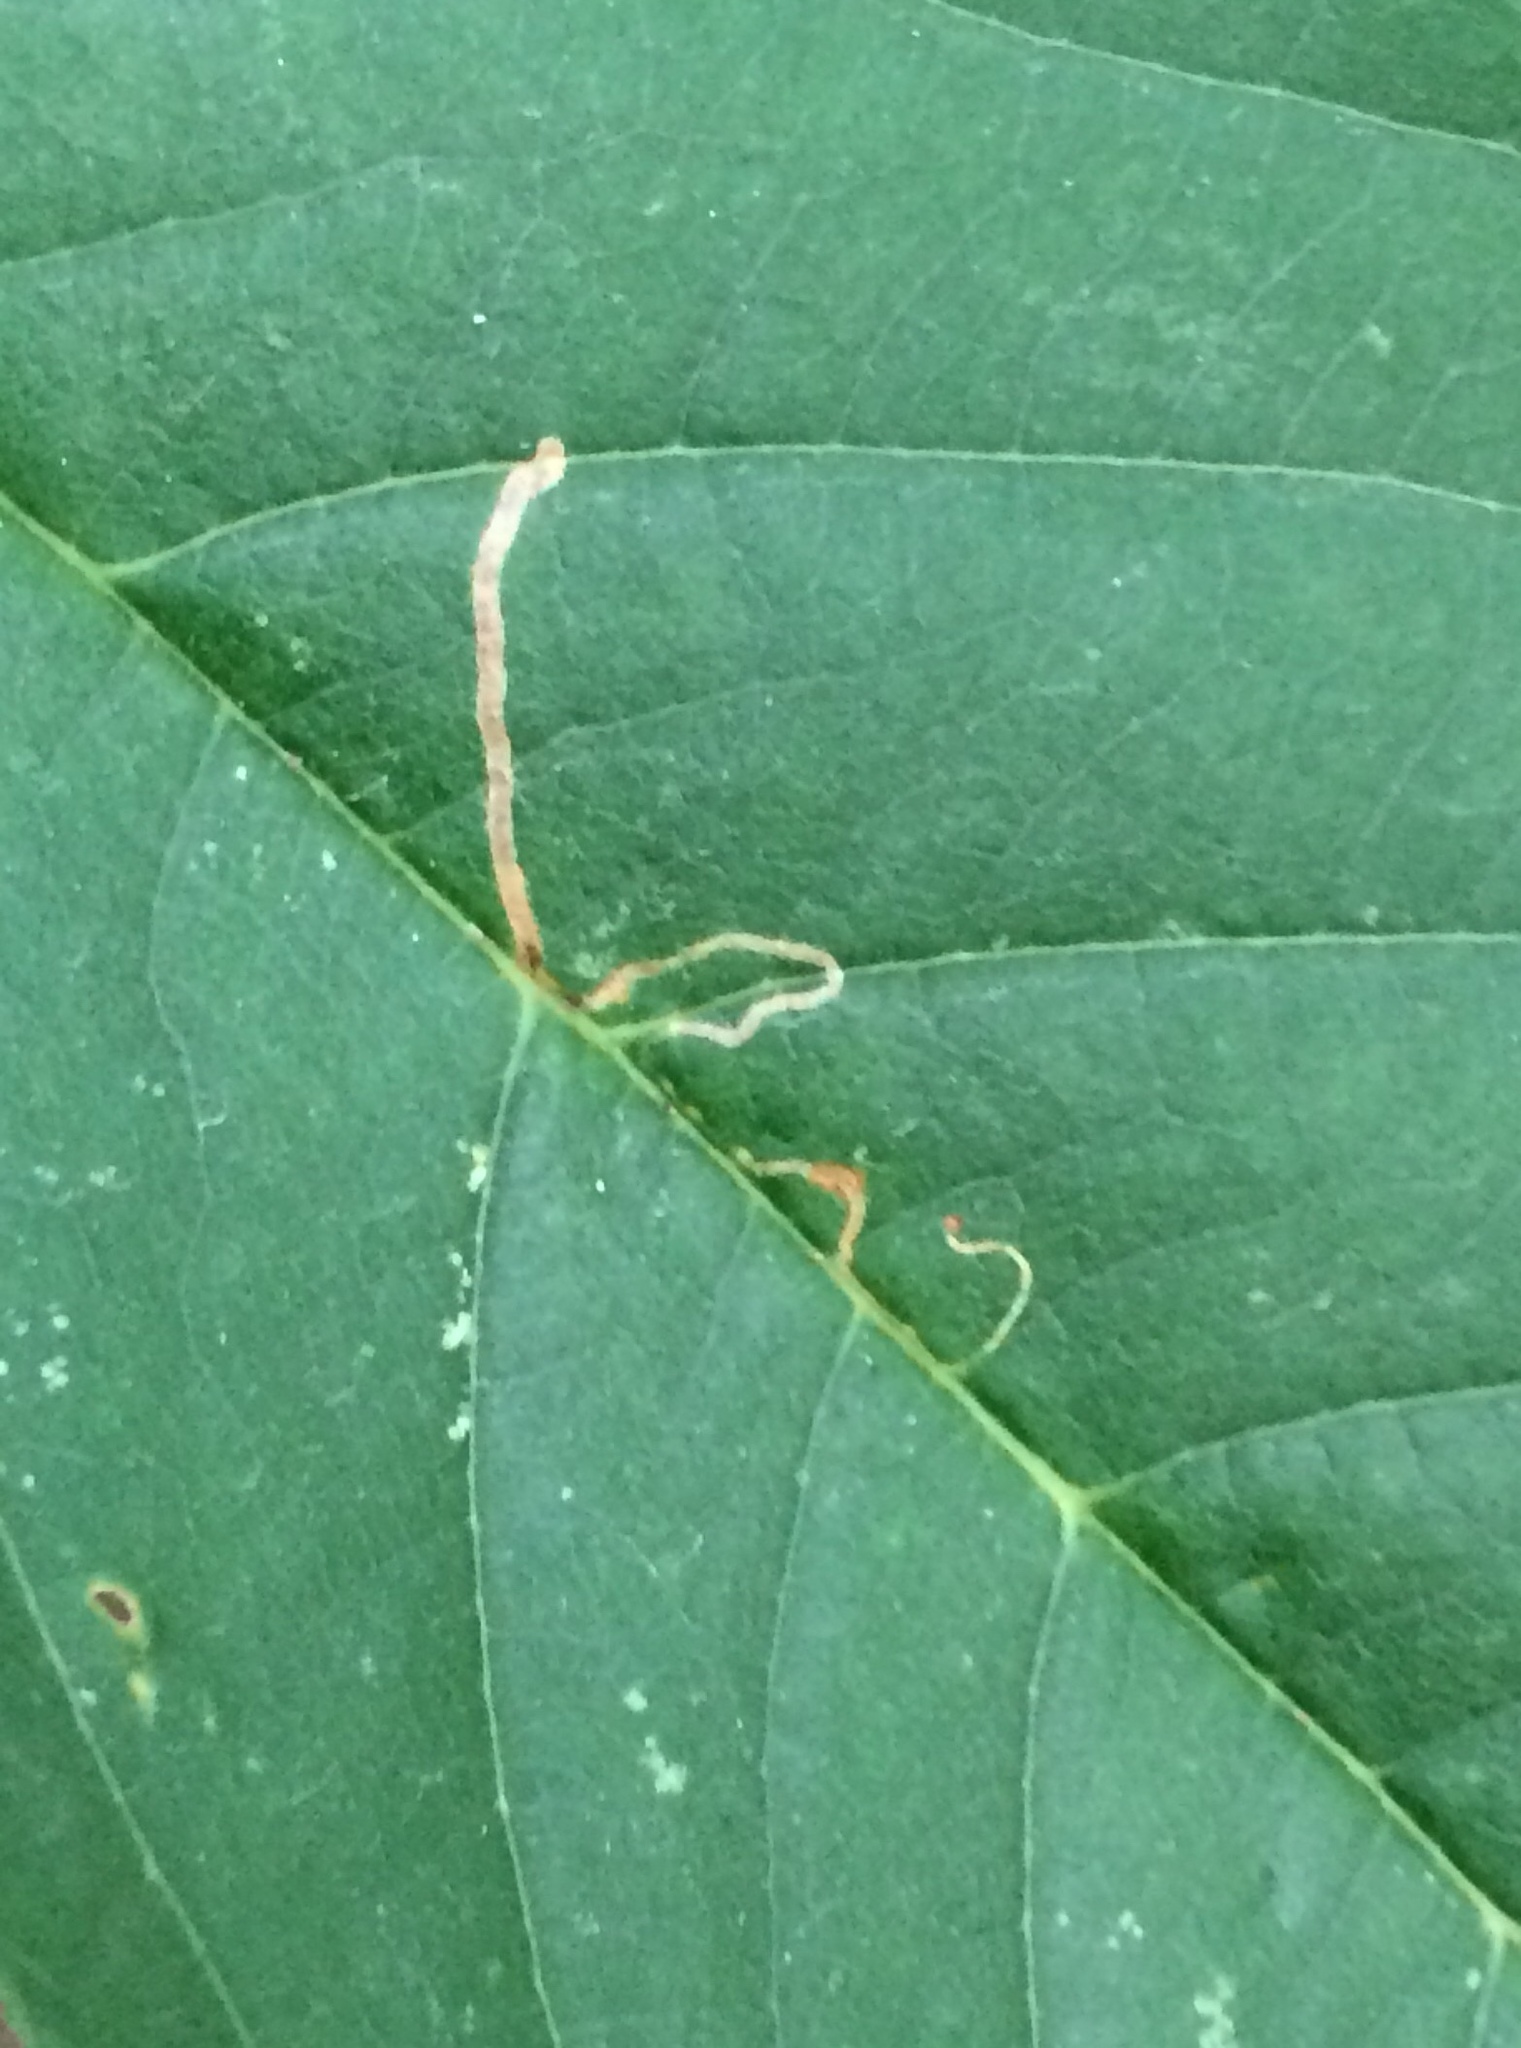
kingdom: Animalia
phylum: Arthropoda
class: Insecta
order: Lepidoptera
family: Lyonetiidae
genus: Lyonetia
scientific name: Lyonetia clerkella
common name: Apple leaf miner
